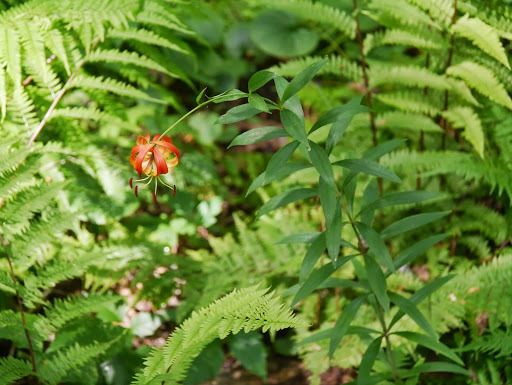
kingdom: Plantae
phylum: Tracheophyta
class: Liliopsida
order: Liliales
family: Liliaceae
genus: Lilium
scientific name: Lilium superbum
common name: American turk's-cap lily
